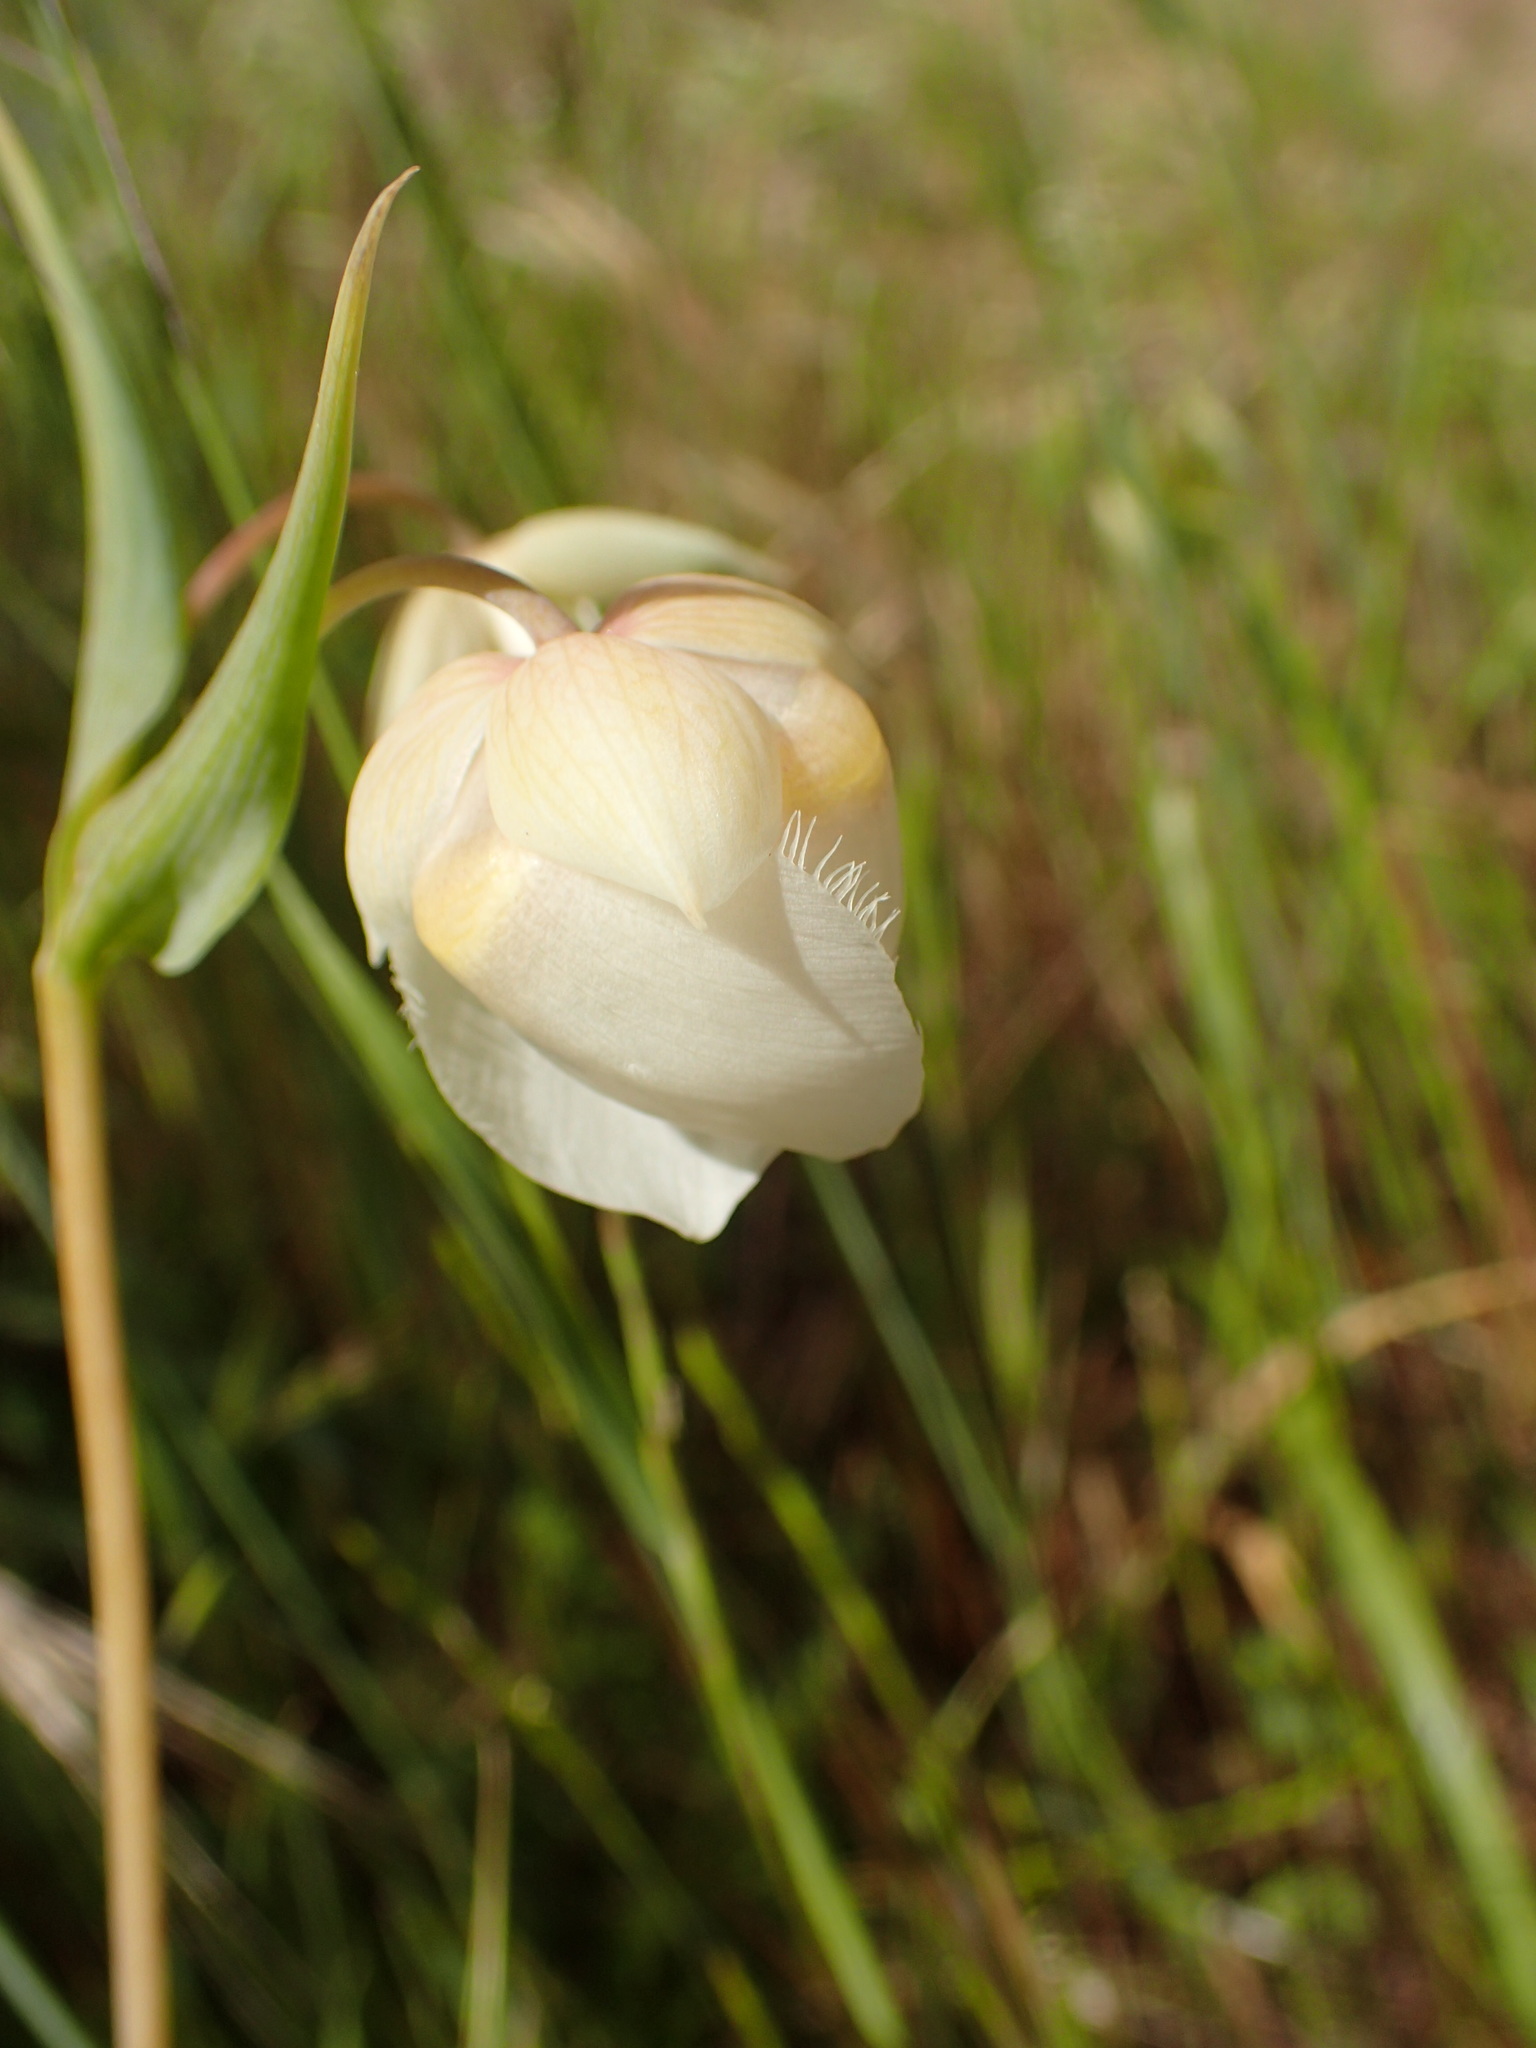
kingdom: Plantae
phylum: Tracheophyta
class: Liliopsida
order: Liliales
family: Liliaceae
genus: Calochortus
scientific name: Calochortus albus
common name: Fairy-lantern
